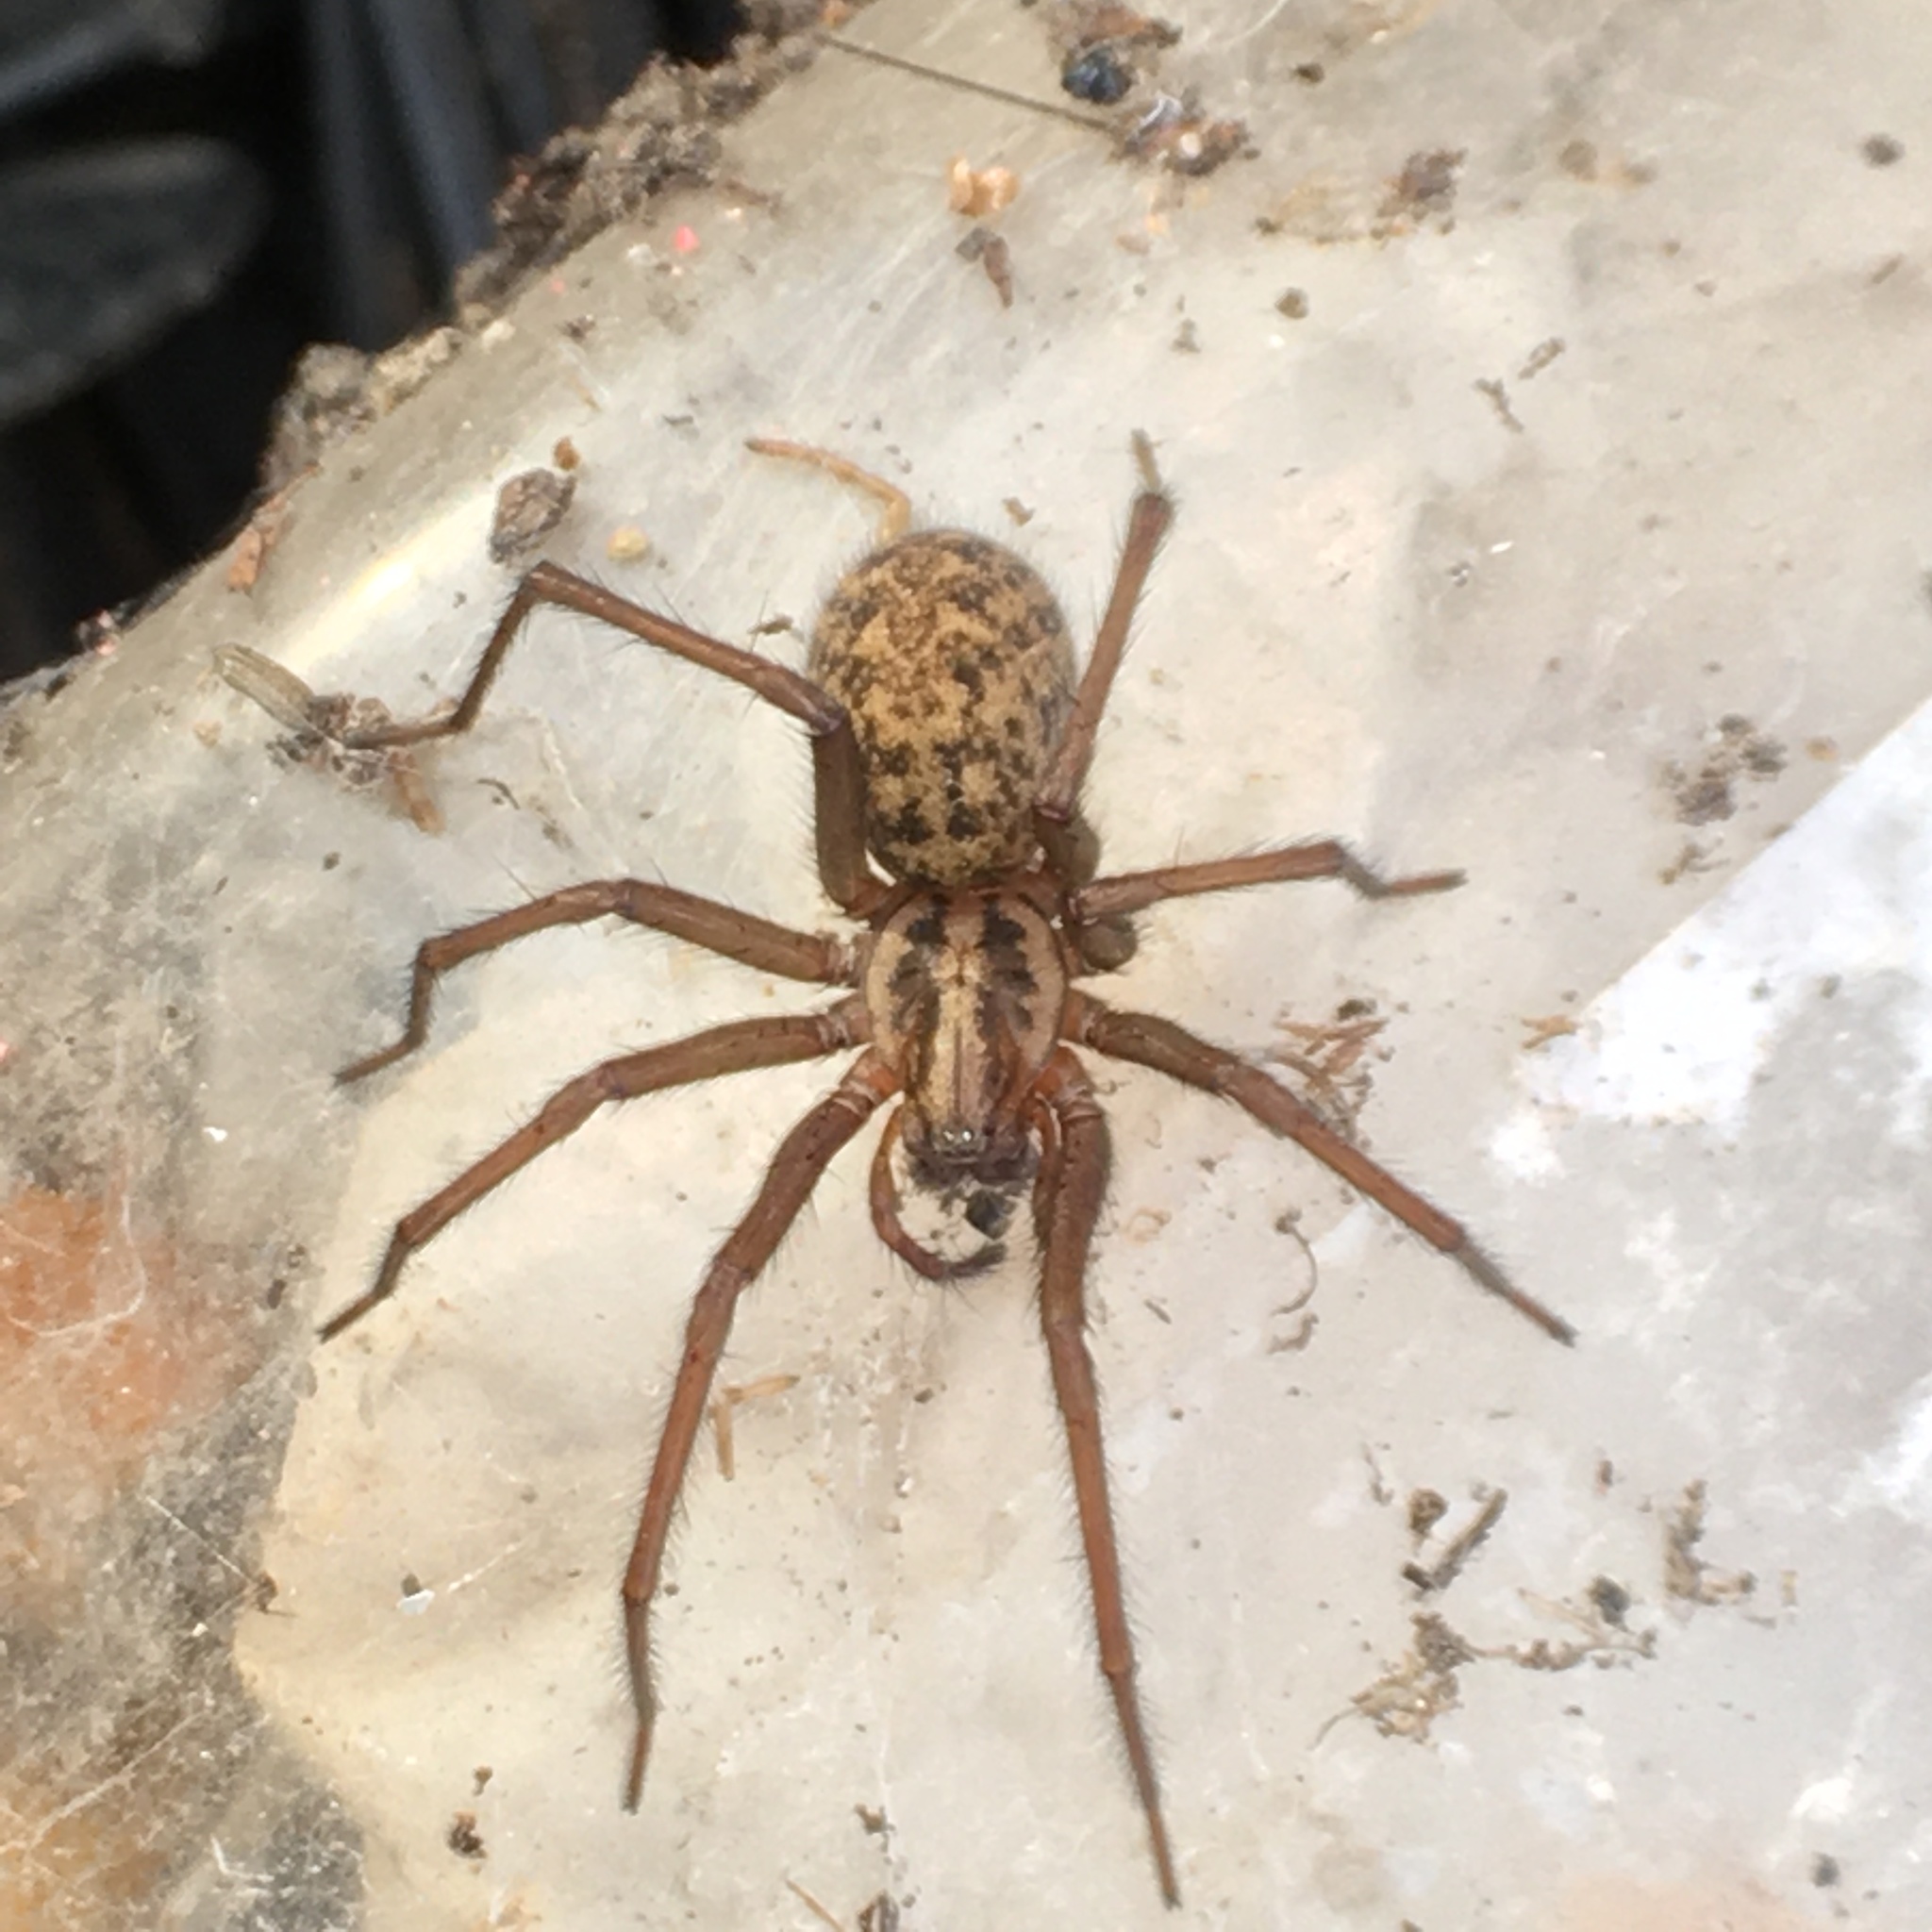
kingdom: Animalia
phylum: Arthropoda
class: Arachnida
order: Araneae
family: Agelenidae
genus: Eratigena
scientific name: Eratigena atrica
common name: Giant house spider
